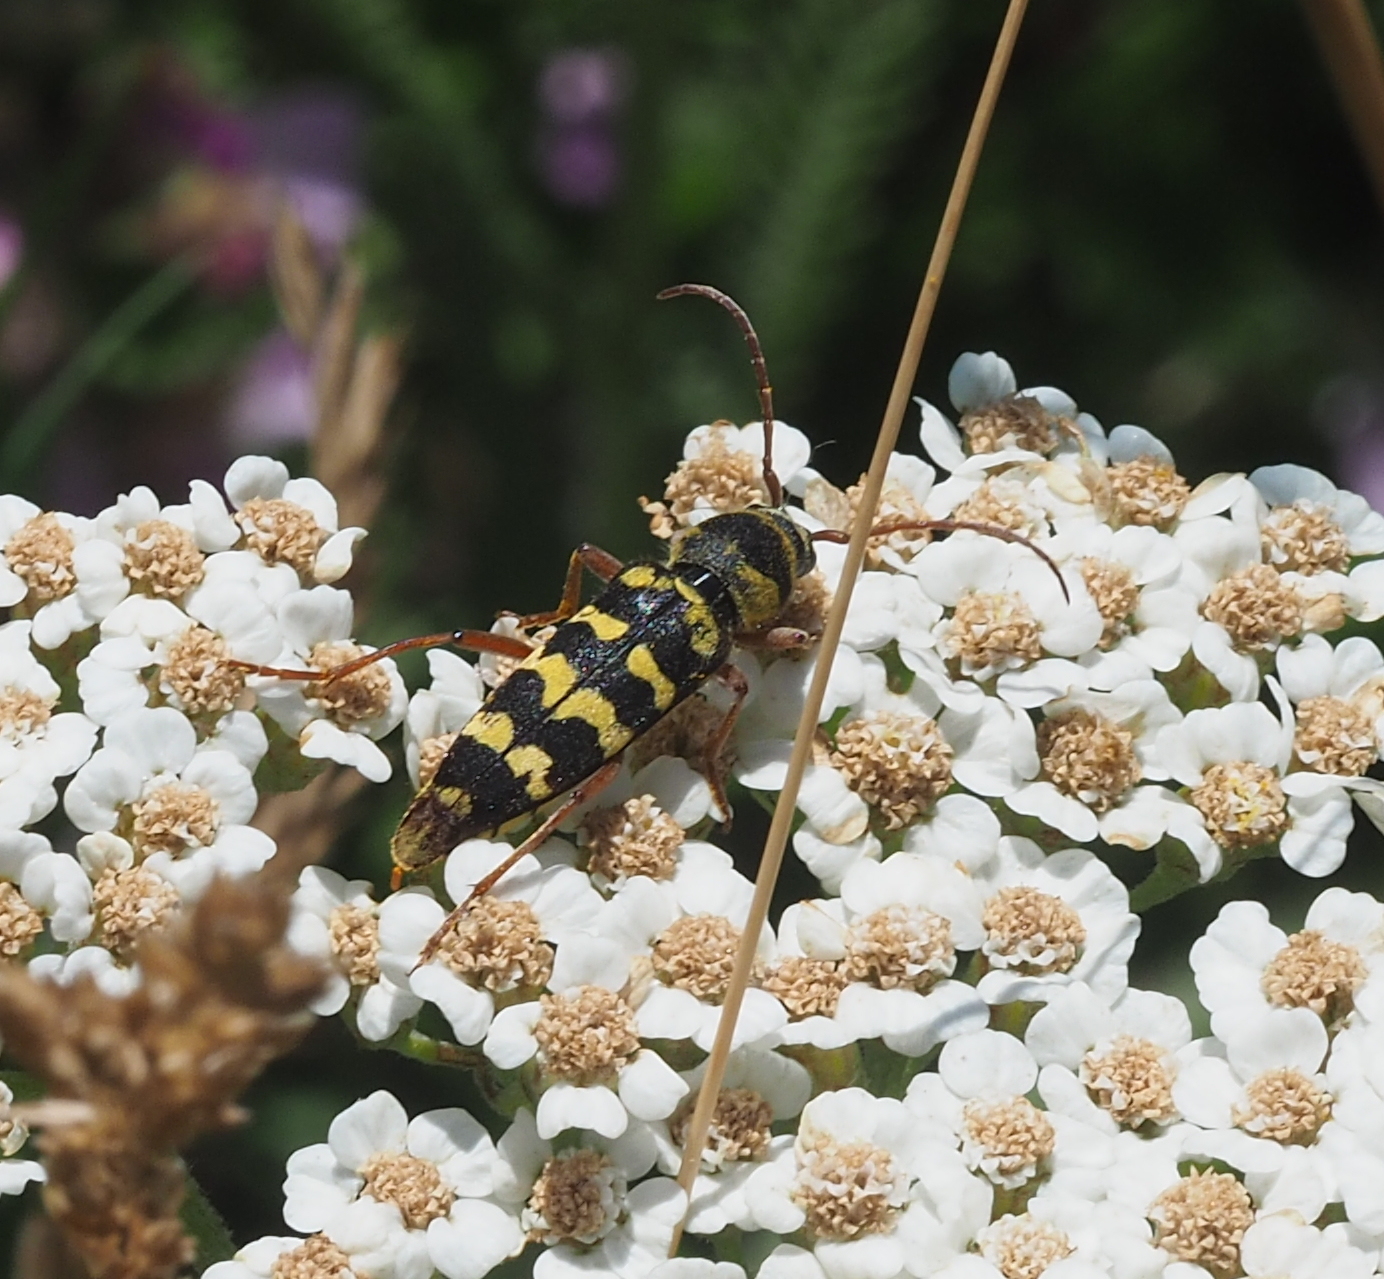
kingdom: Animalia
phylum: Arthropoda
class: Insecta
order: Coleoptera
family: Cerambycidae
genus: Plagionotus
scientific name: Plagionotus floralis
